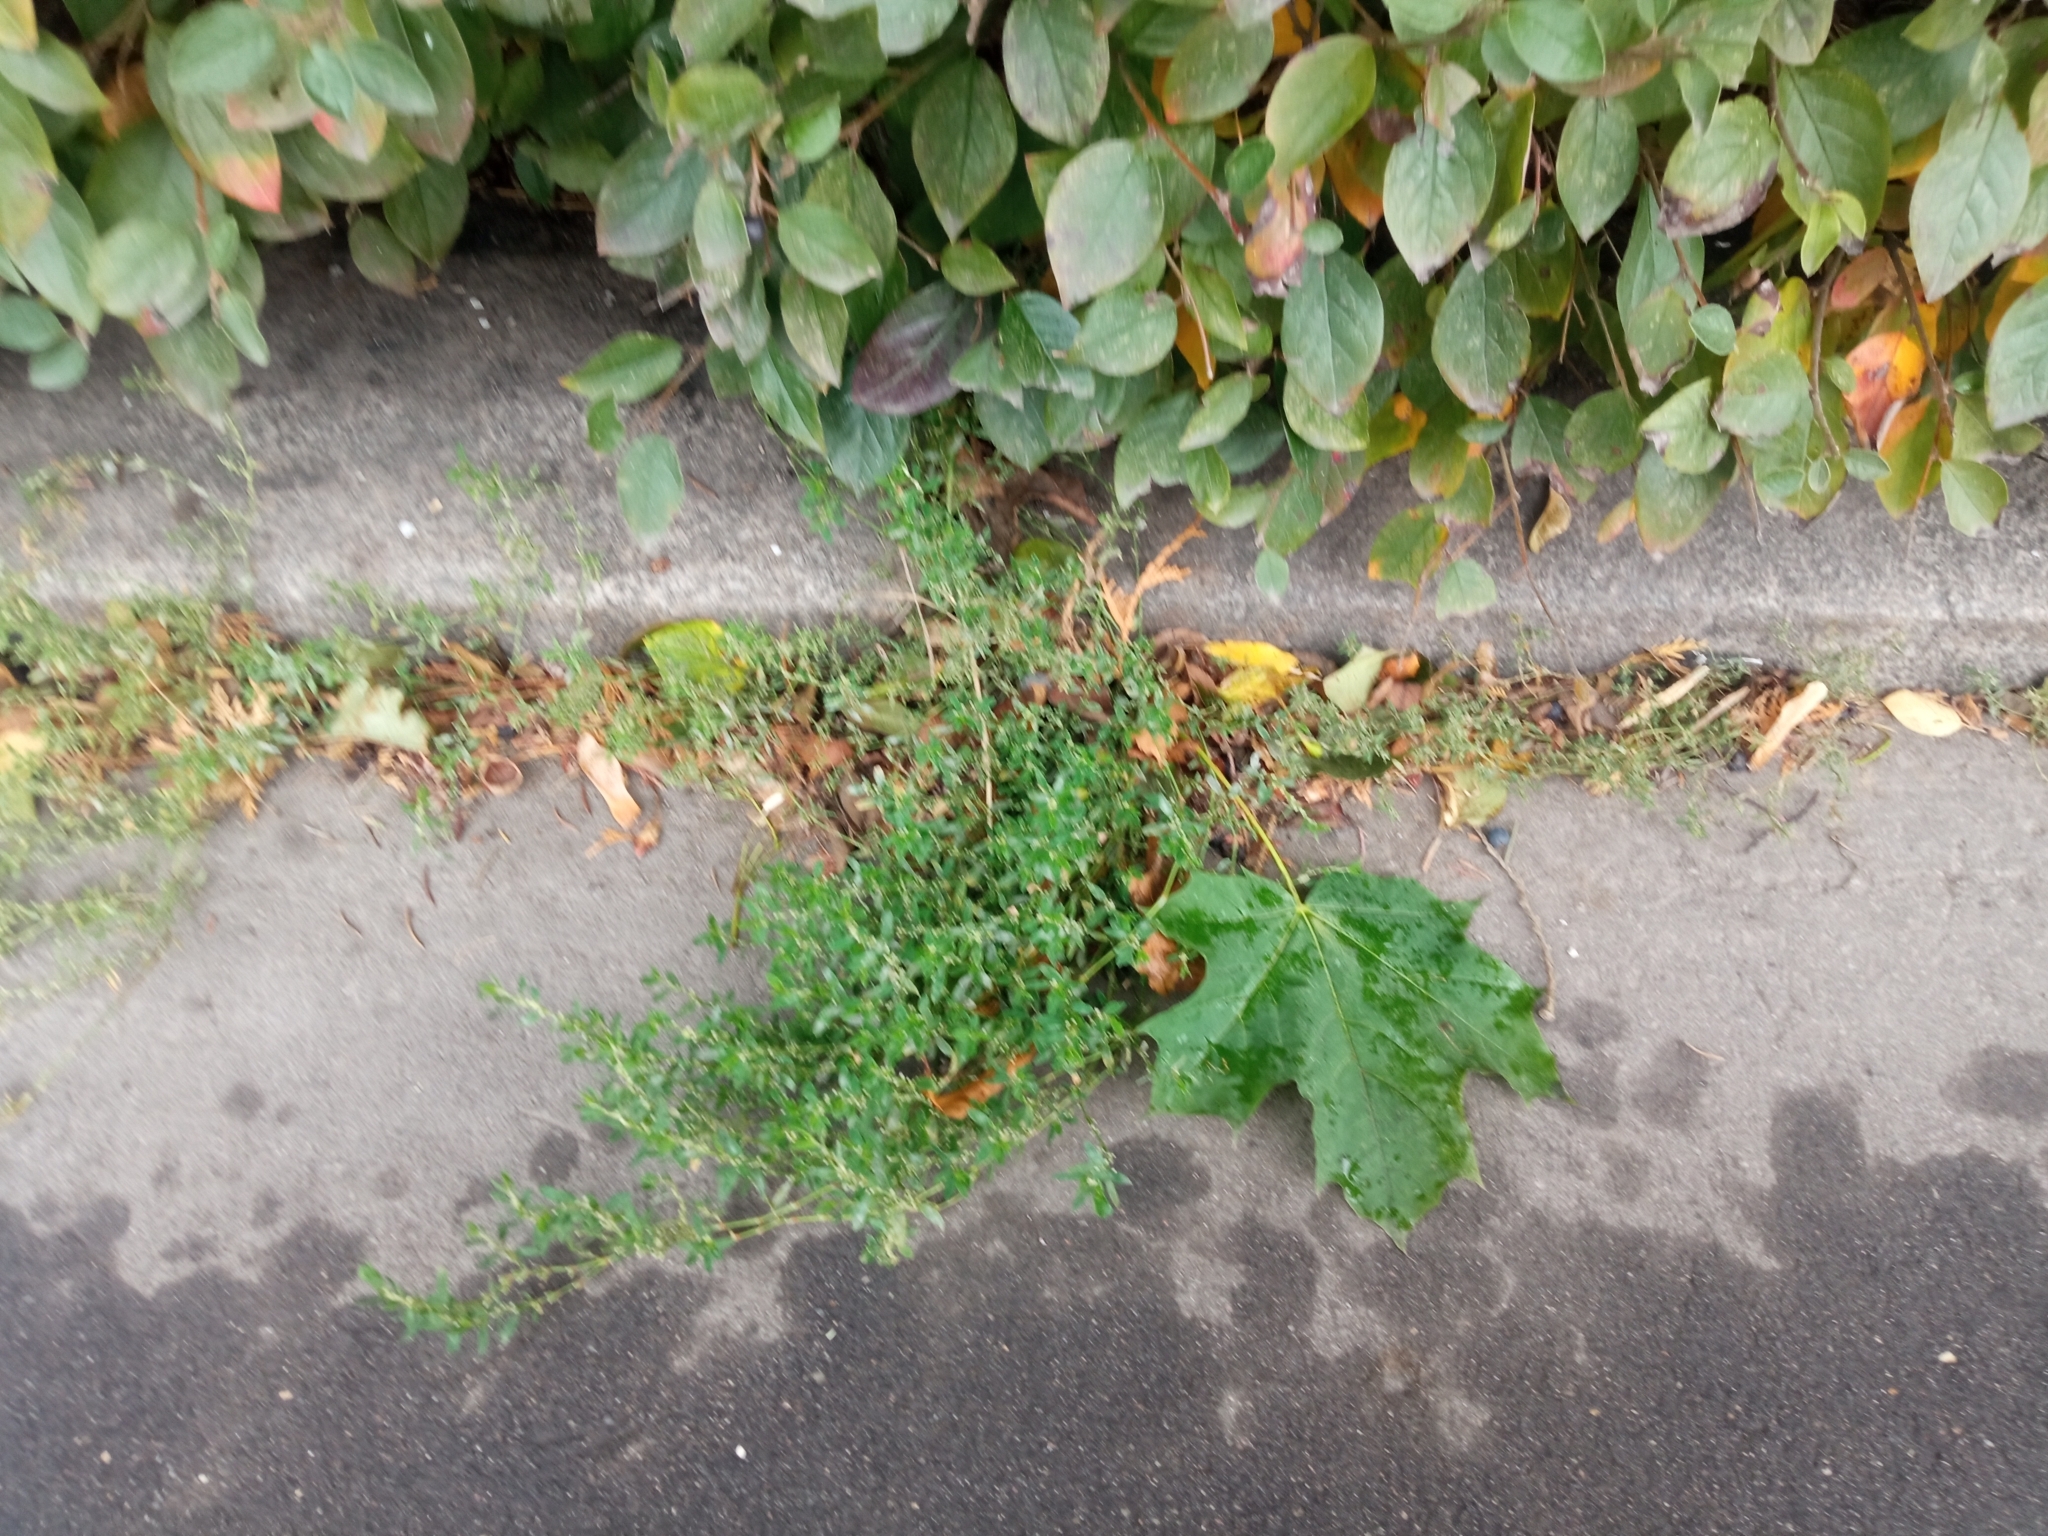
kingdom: Plantae
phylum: Tracheophyta
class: Magnoliopsida
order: Caryophyllales
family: Polygonaceae
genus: Polygonum
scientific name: Polygonum
